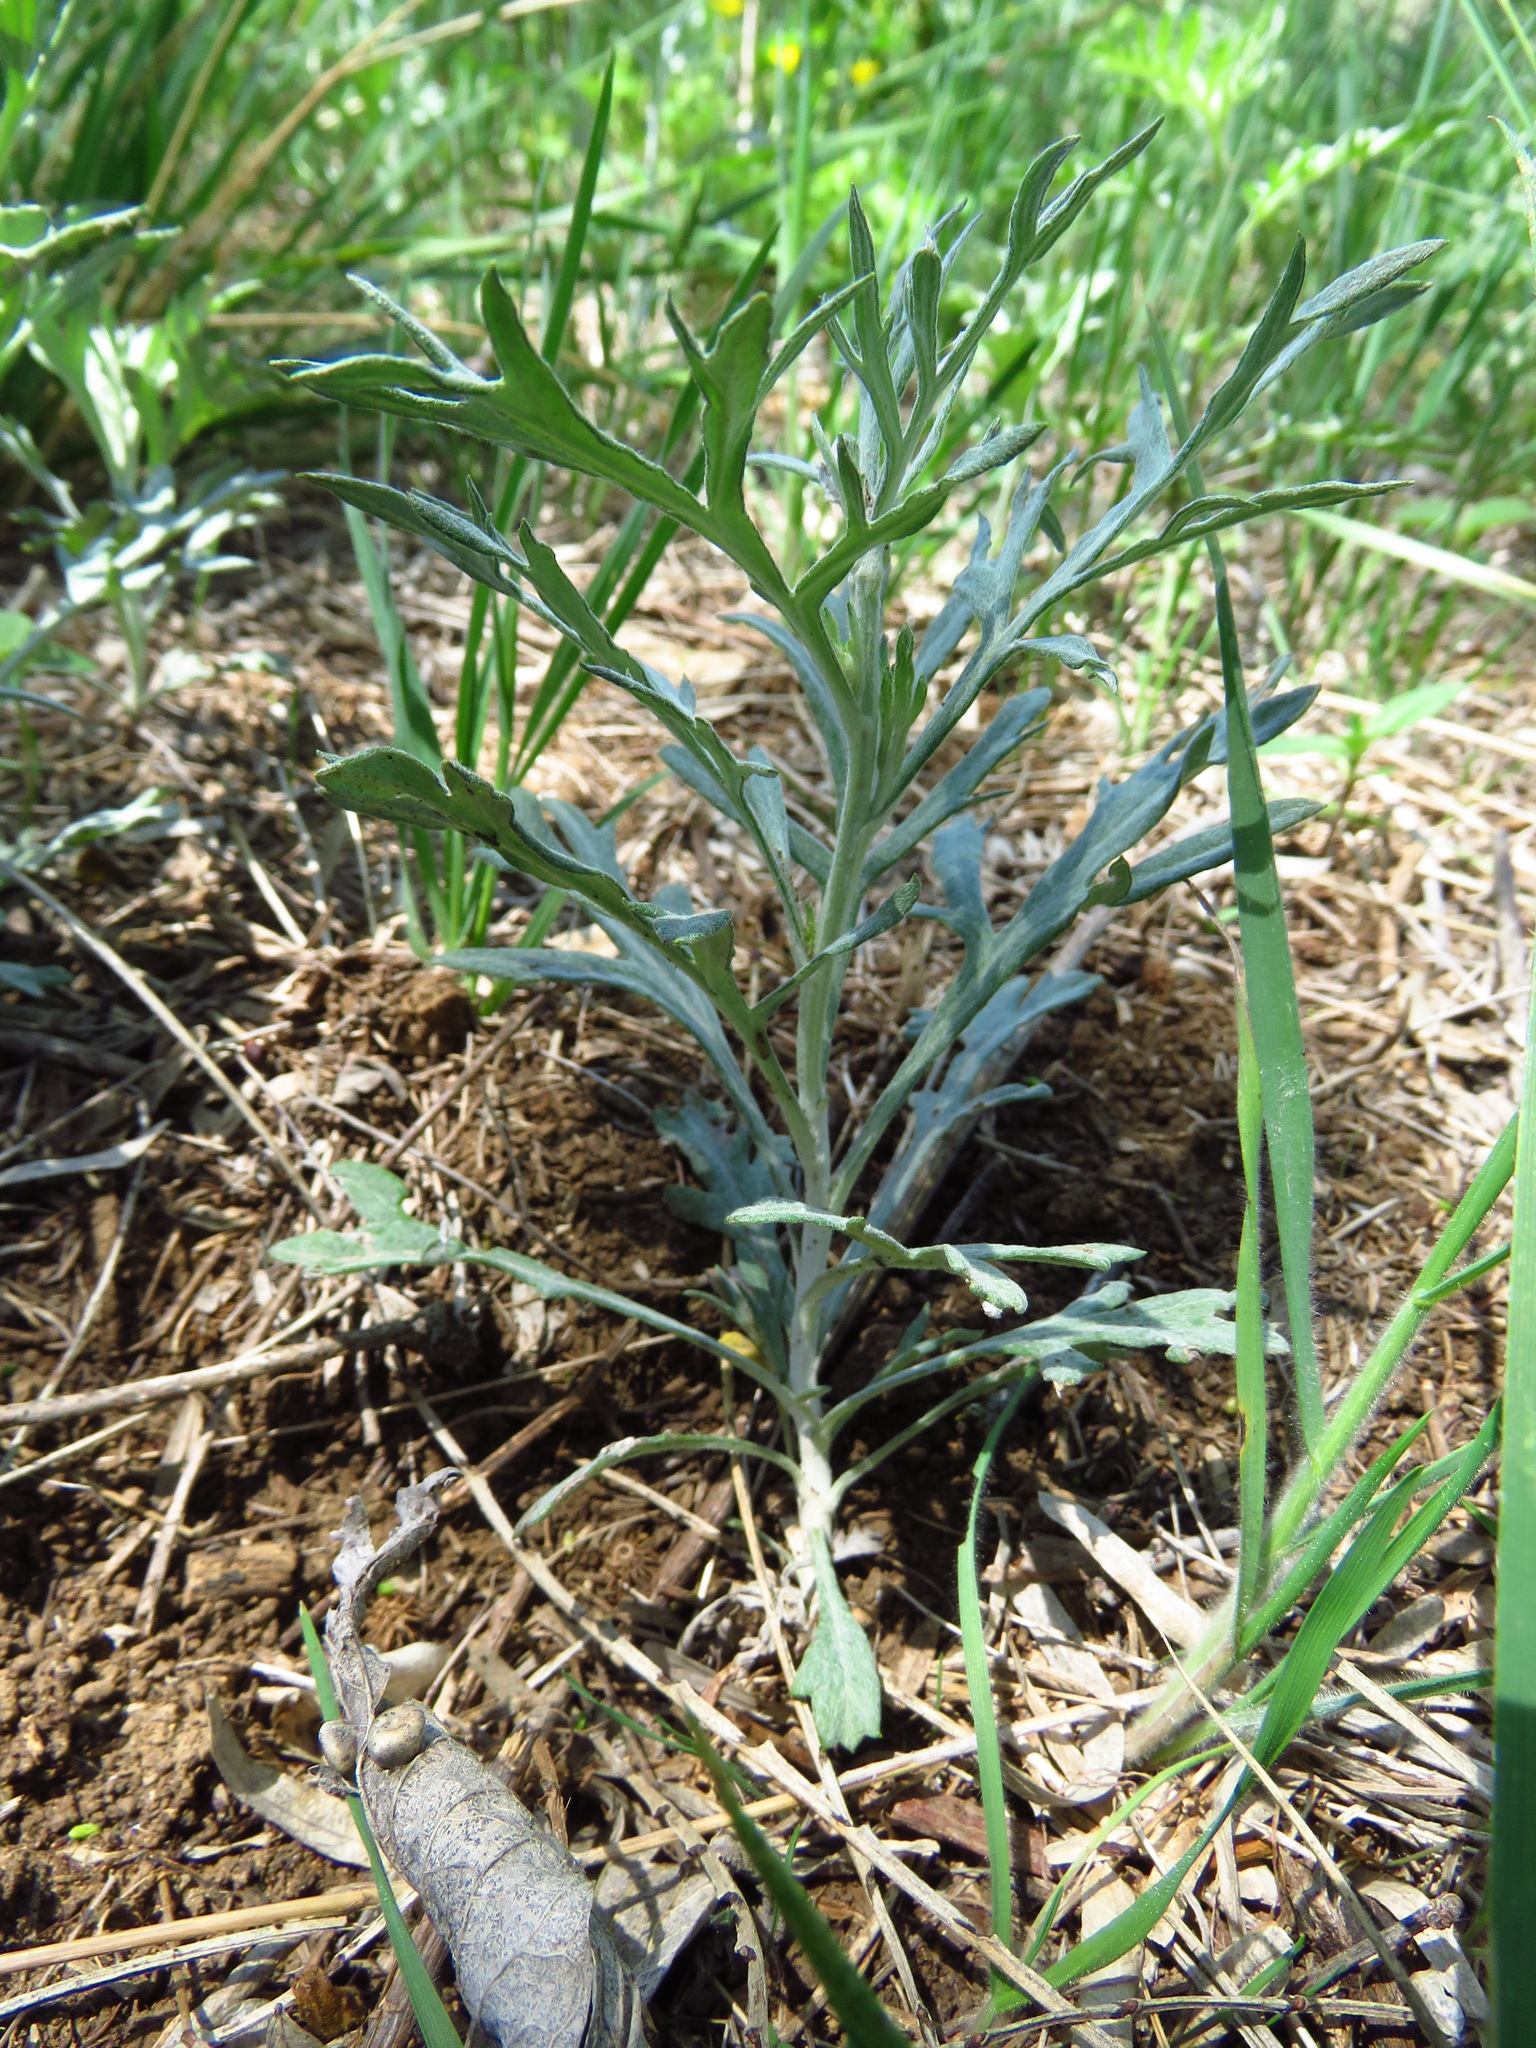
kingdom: Plantae
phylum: Tracheophyta
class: Magnoliopsida
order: Asterales
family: Asteraceae
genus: Artemisia
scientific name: Artemisia ludoviciana
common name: Western mugwort
